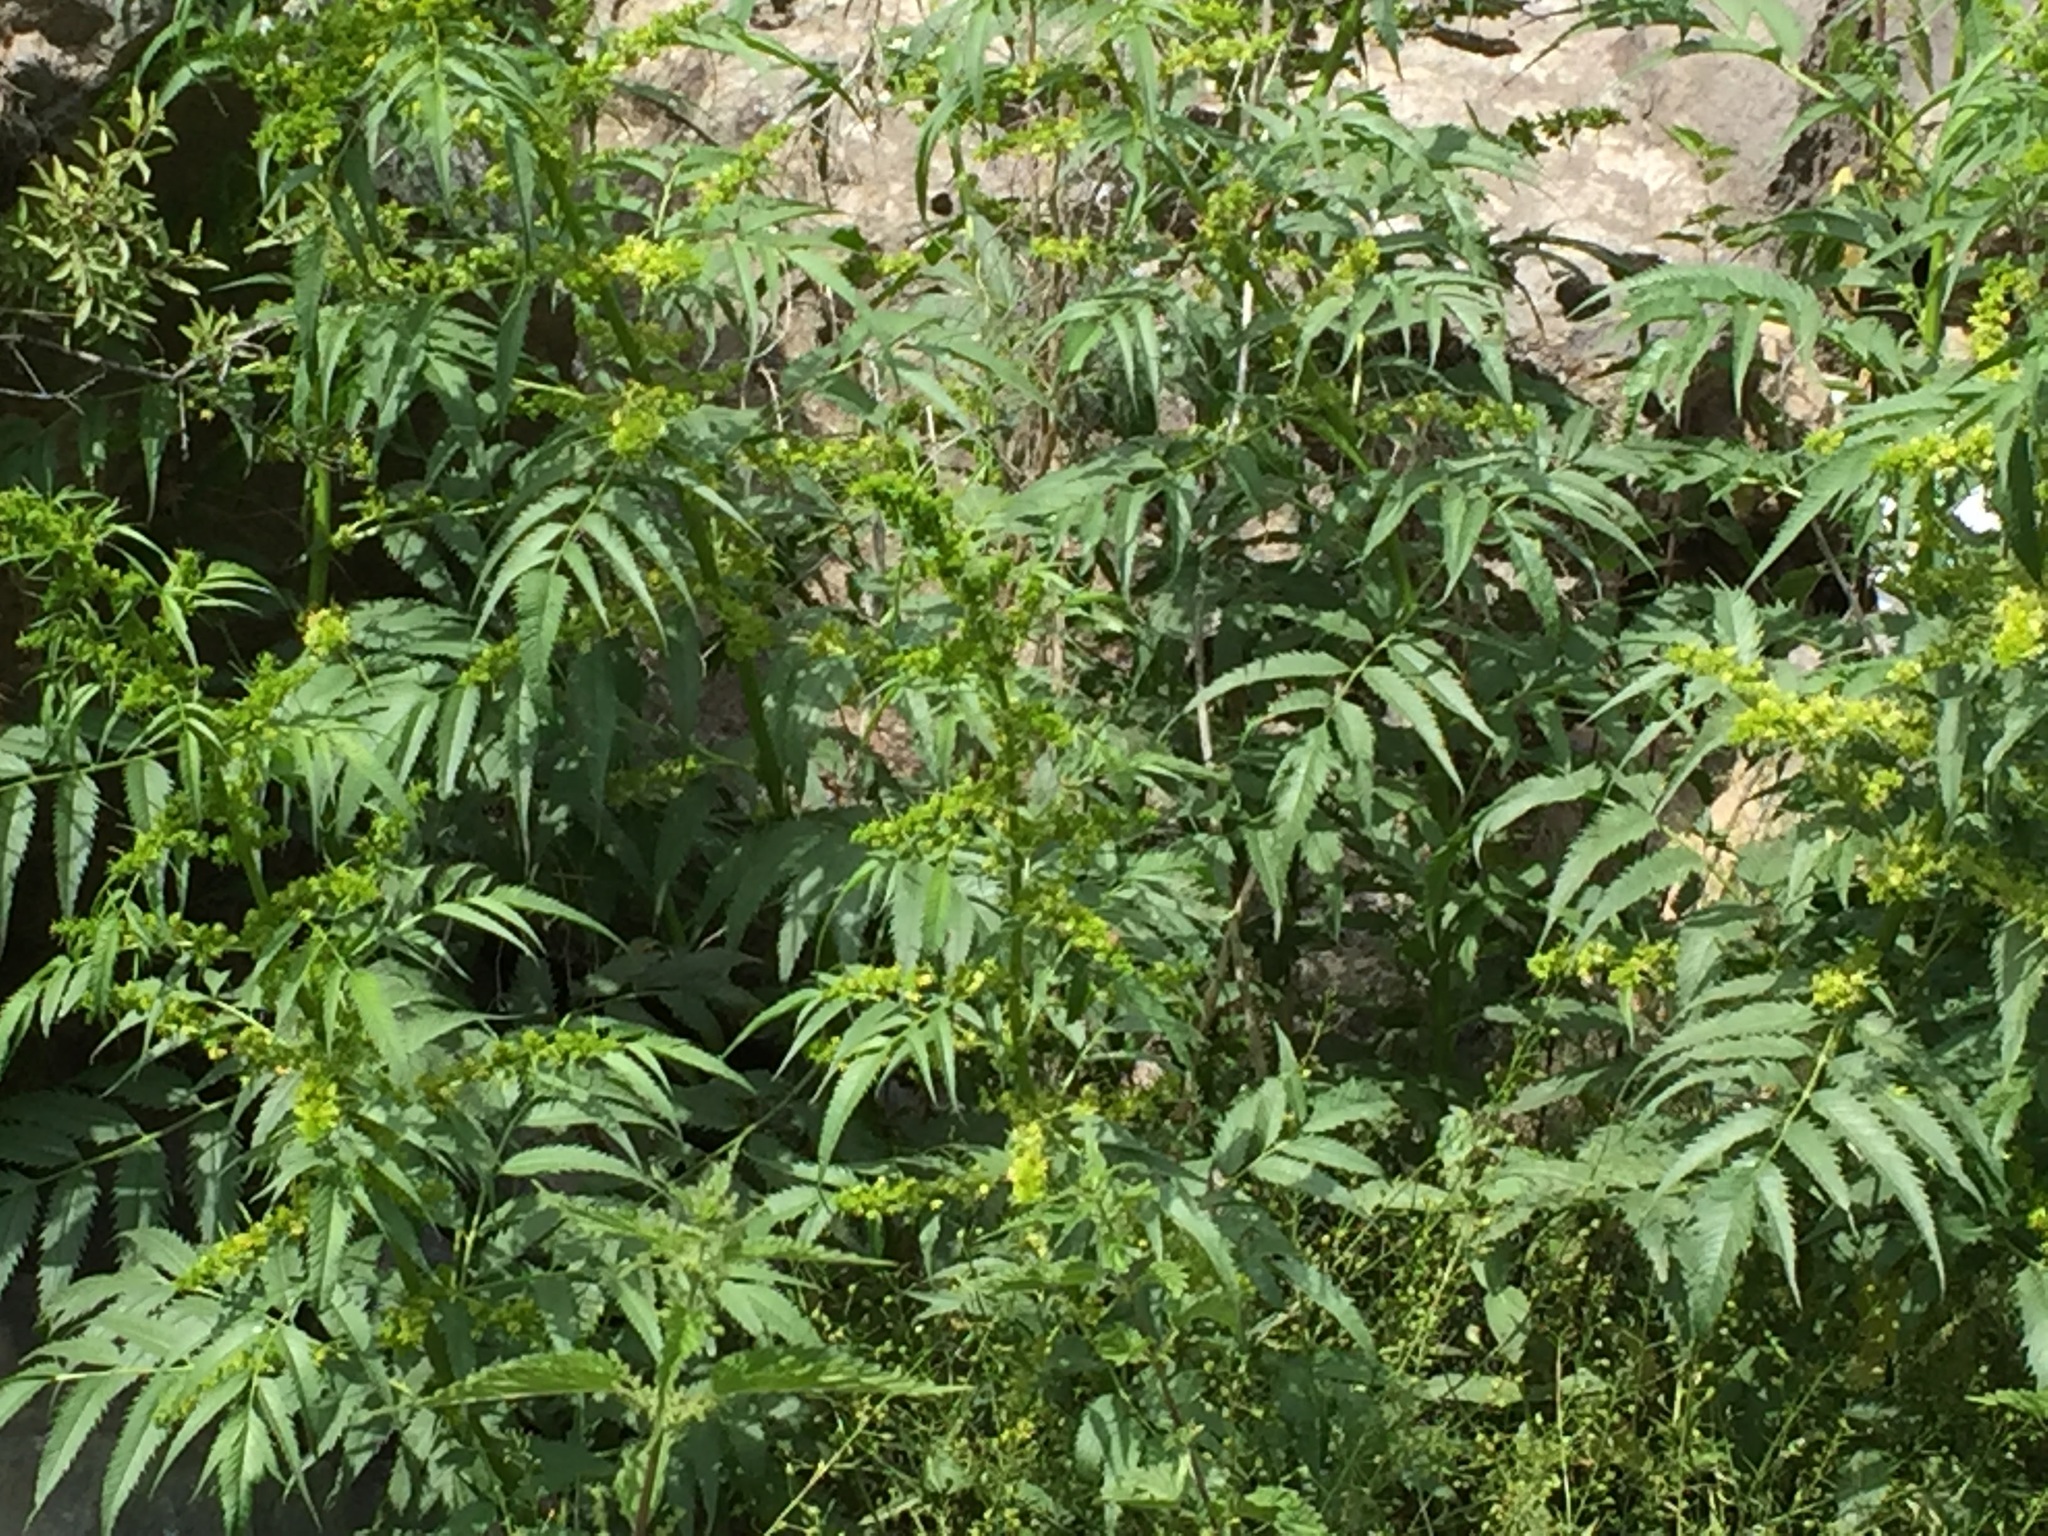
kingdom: Plantae
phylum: Tracheophyta
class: Magnoliopsida
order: Cucurbitales
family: Datiscaceae
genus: Datisca
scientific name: Datisca cannabina
